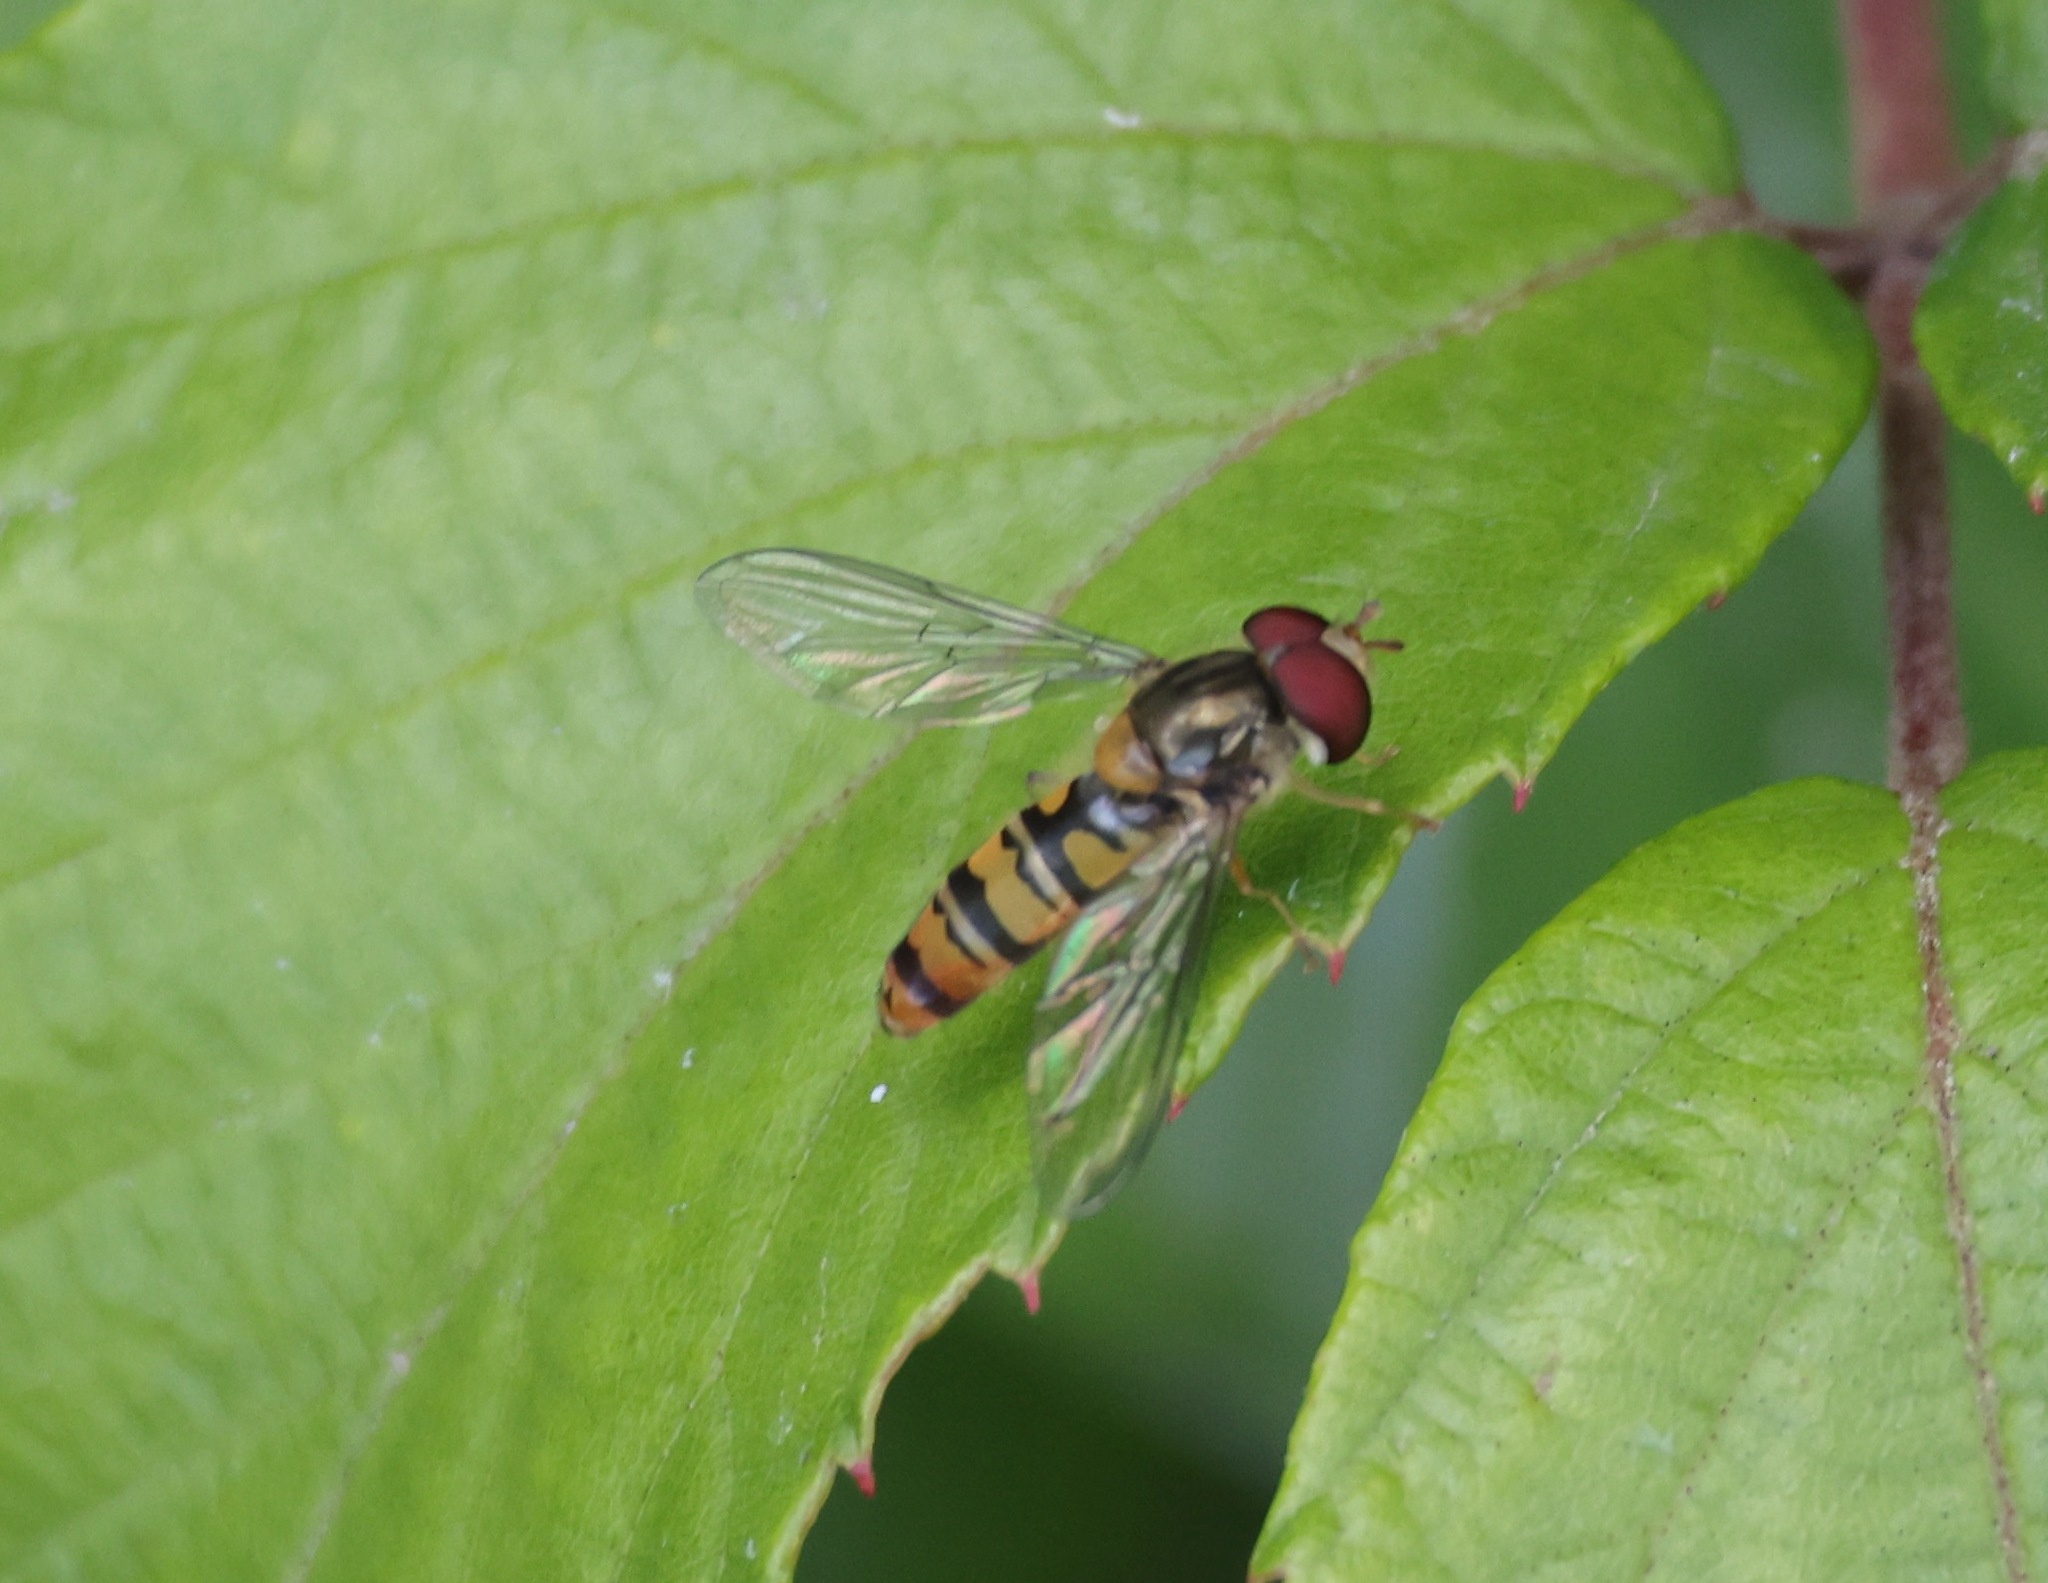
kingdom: Animalia
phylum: Arthropoda
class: Insecta
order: Diptera
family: Syrphidae
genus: Episyrphus
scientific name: Episyrphus balteatus
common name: Marmalade hoverfly
